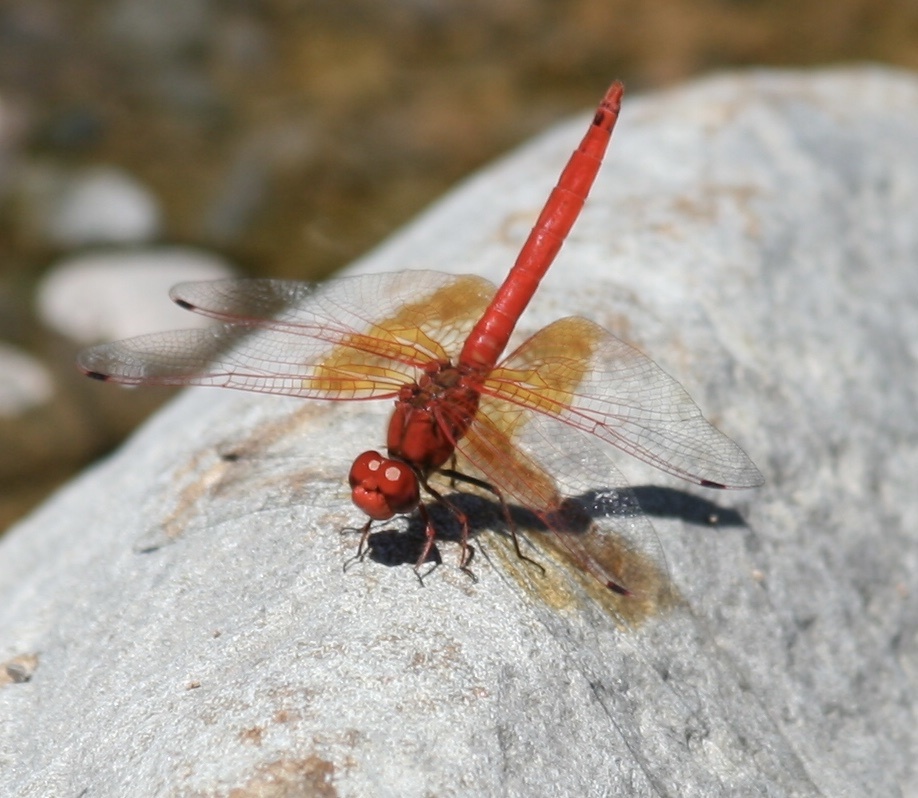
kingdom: Animalia
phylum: Arthropoda
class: Insecta
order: Odonata
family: Libellulidae
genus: Trithemis
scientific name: Trithemis kirbyi
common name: Kirby's dropwing
